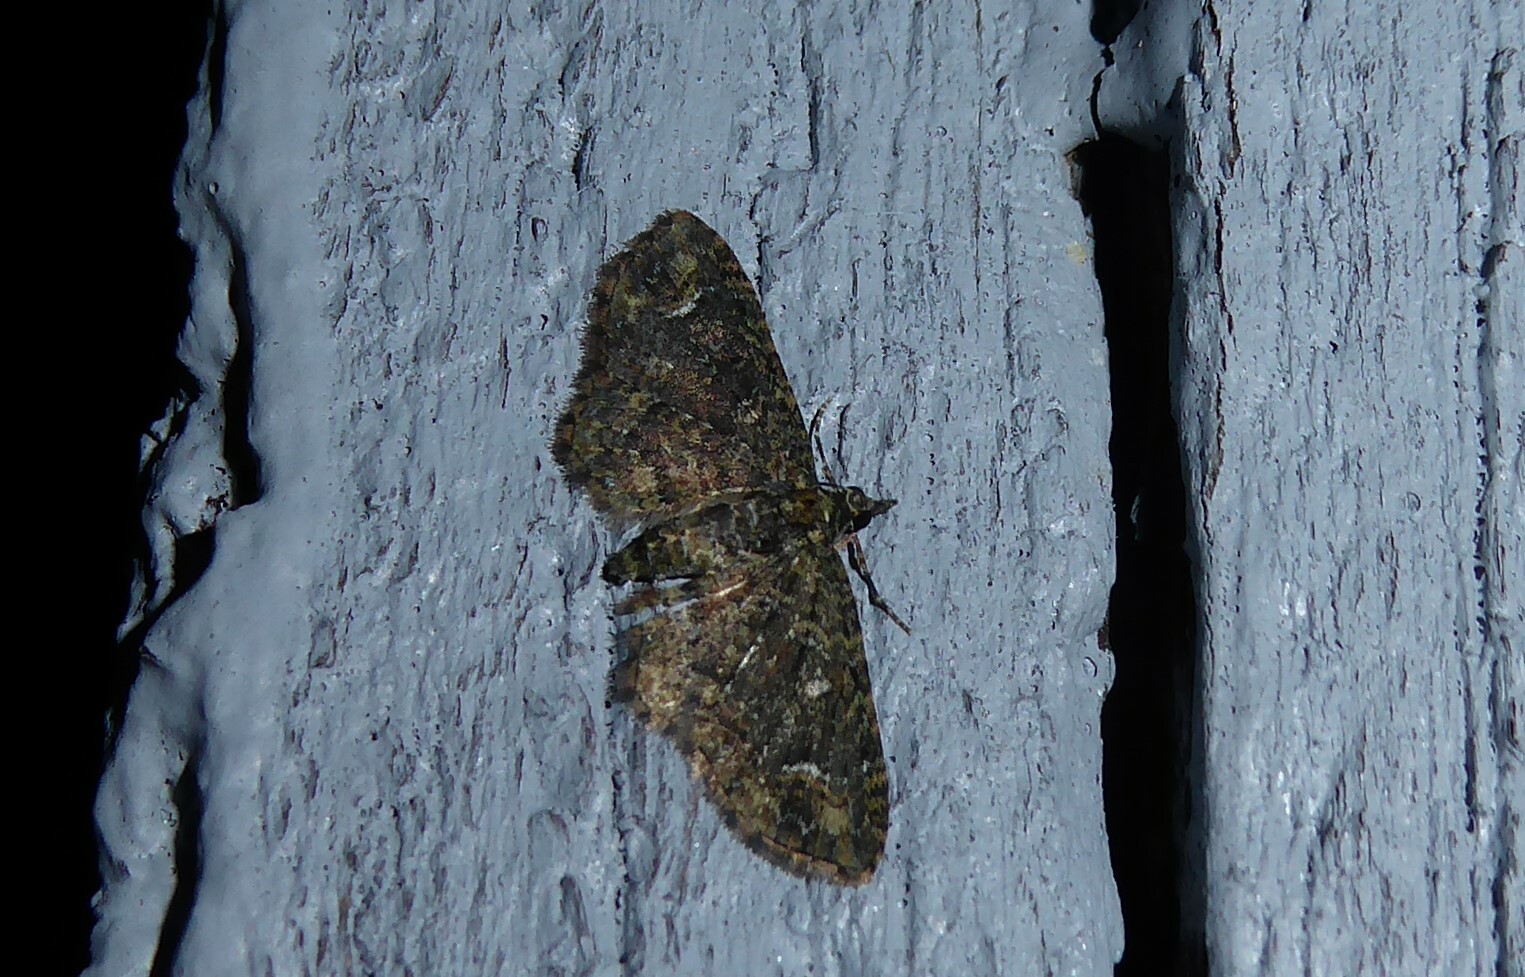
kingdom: Animalia
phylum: Arthropoda
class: Insecta
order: Lepidoptera
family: Geometridae
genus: Pasiphilodes
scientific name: Pasiphilodes testulata
